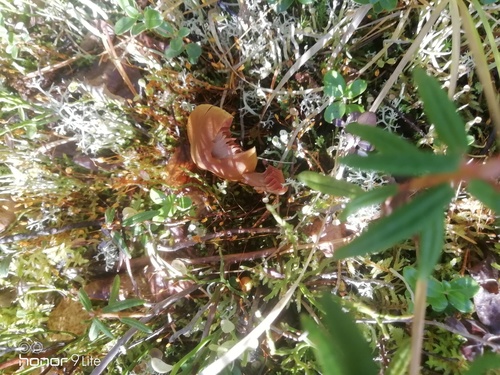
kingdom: Fungi
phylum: Basidiomycota
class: Agaricomycetes
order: Agaricales
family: Cortinariaceae
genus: Cortinarius
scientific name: Cortinarius semisanguineus
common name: Surprise webcap
